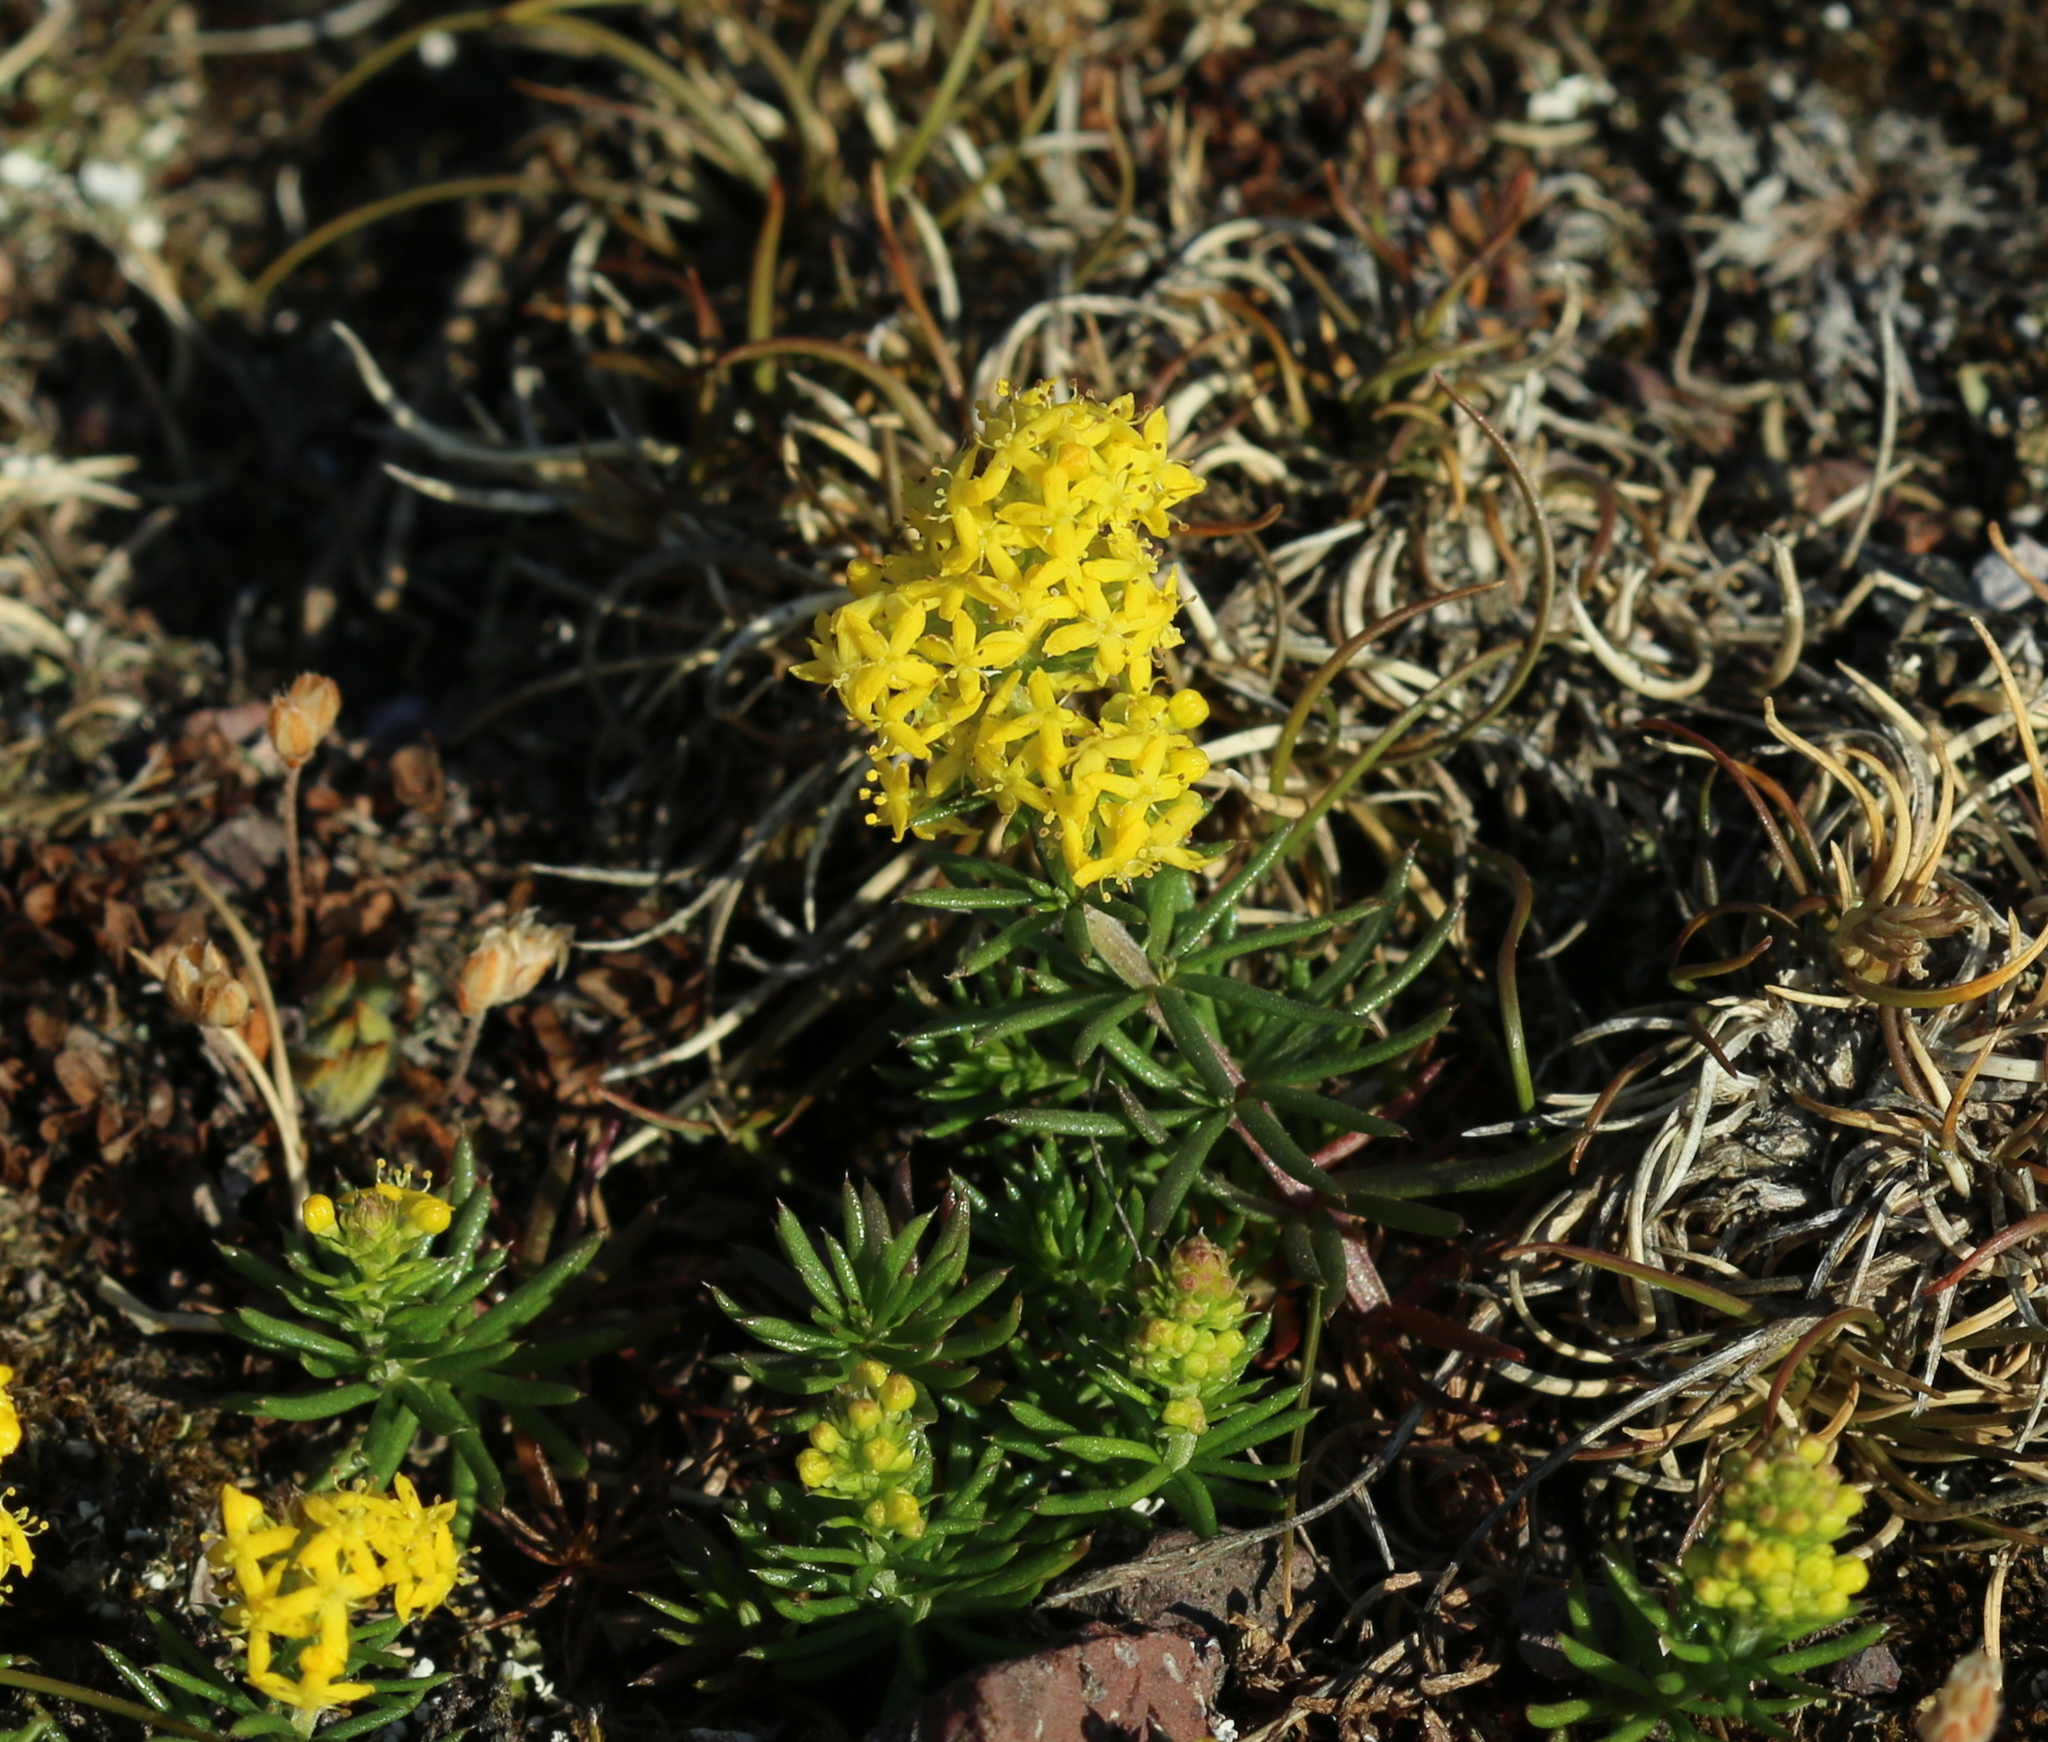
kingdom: Plantae
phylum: Tracheophyta
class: Magnoliopsida
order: Gentianales
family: Rubiaceae
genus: Galium
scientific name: Galium verum
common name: Lady's bedstraw
